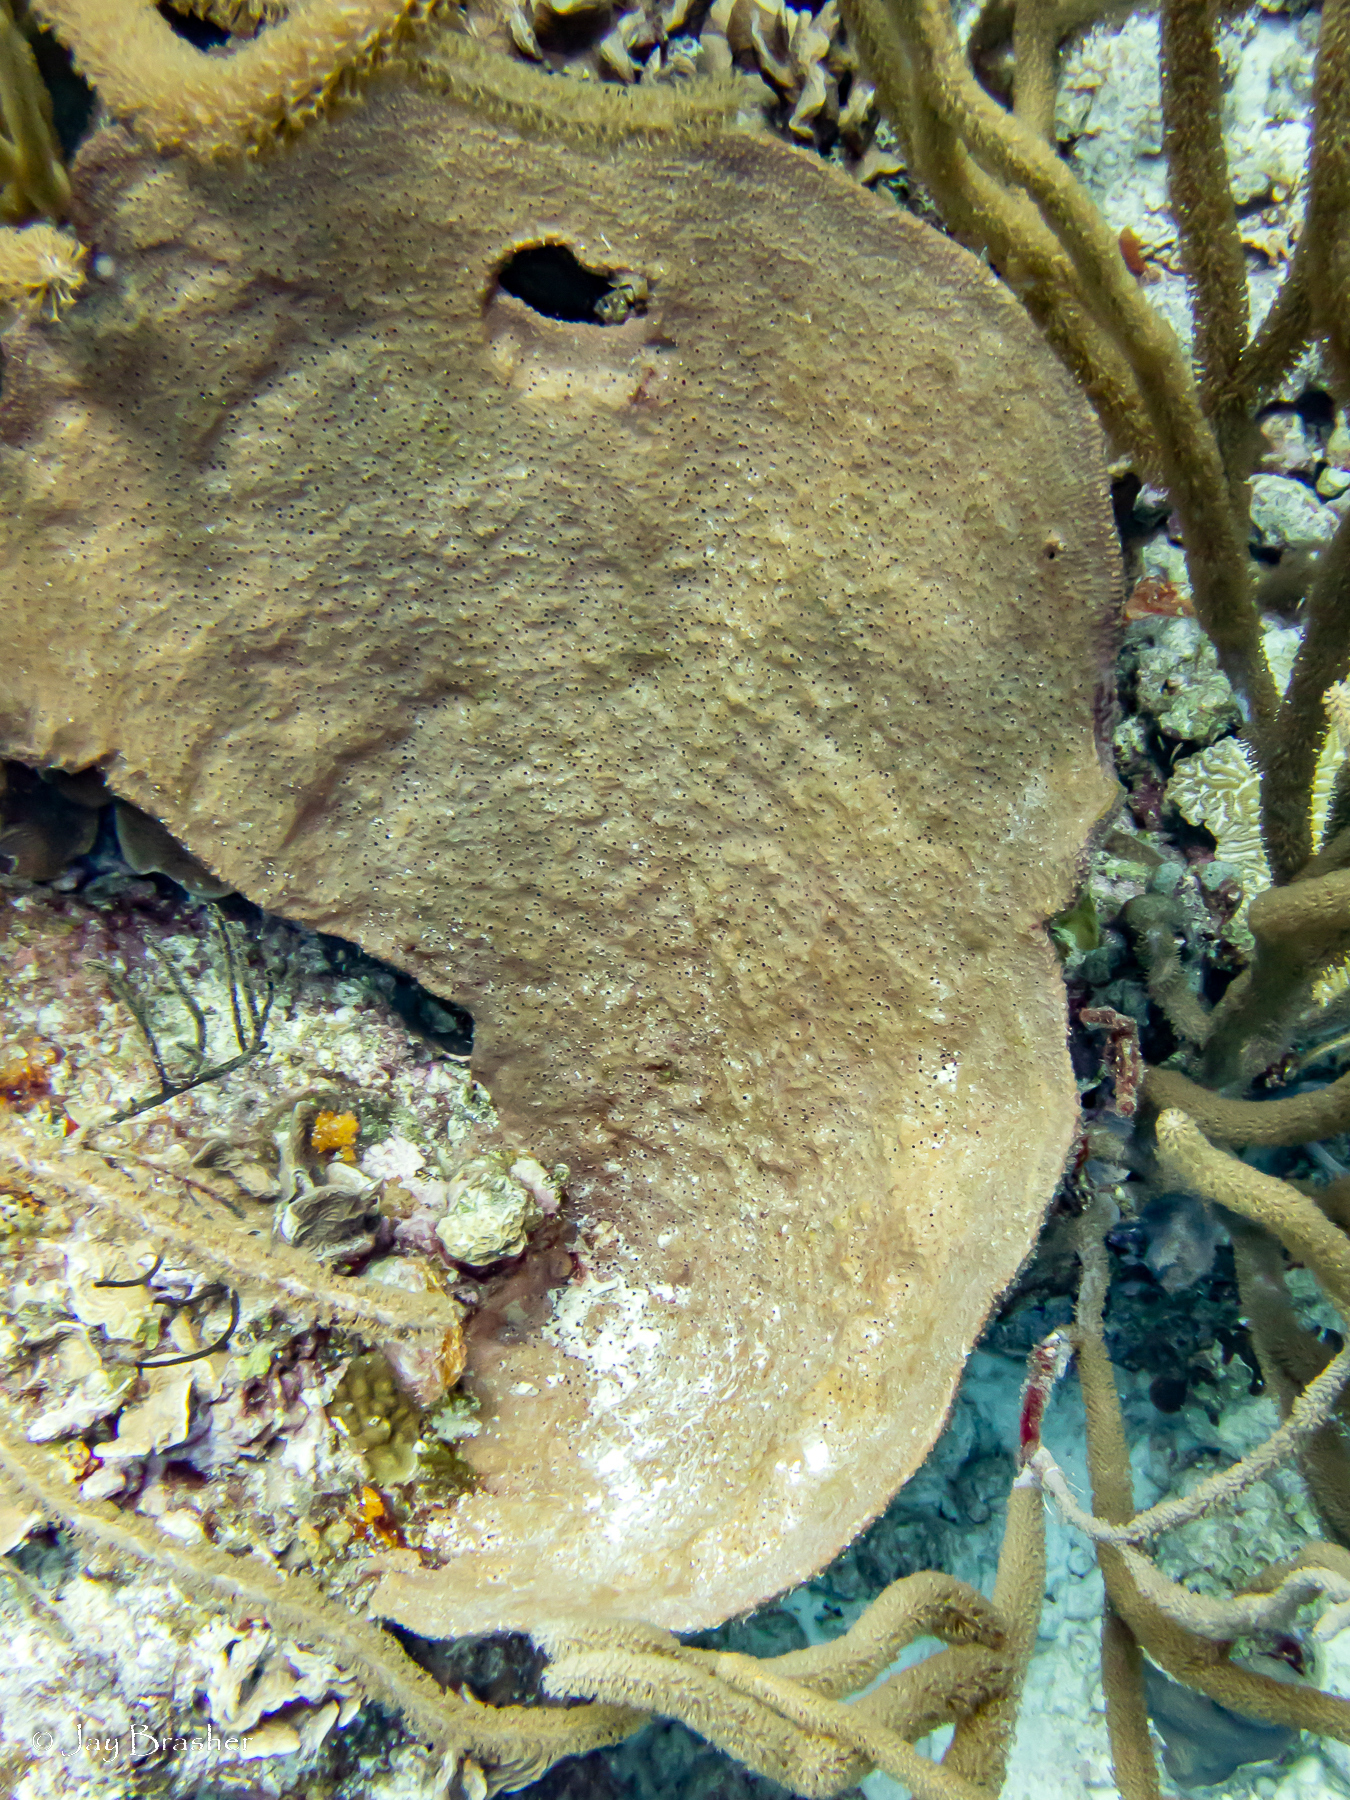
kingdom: Animalia
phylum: Porifera
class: Demospongiae
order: Dictyoceratida
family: Irciniidae
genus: Ircinia
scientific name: Ircinia campana
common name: Vase sponge
